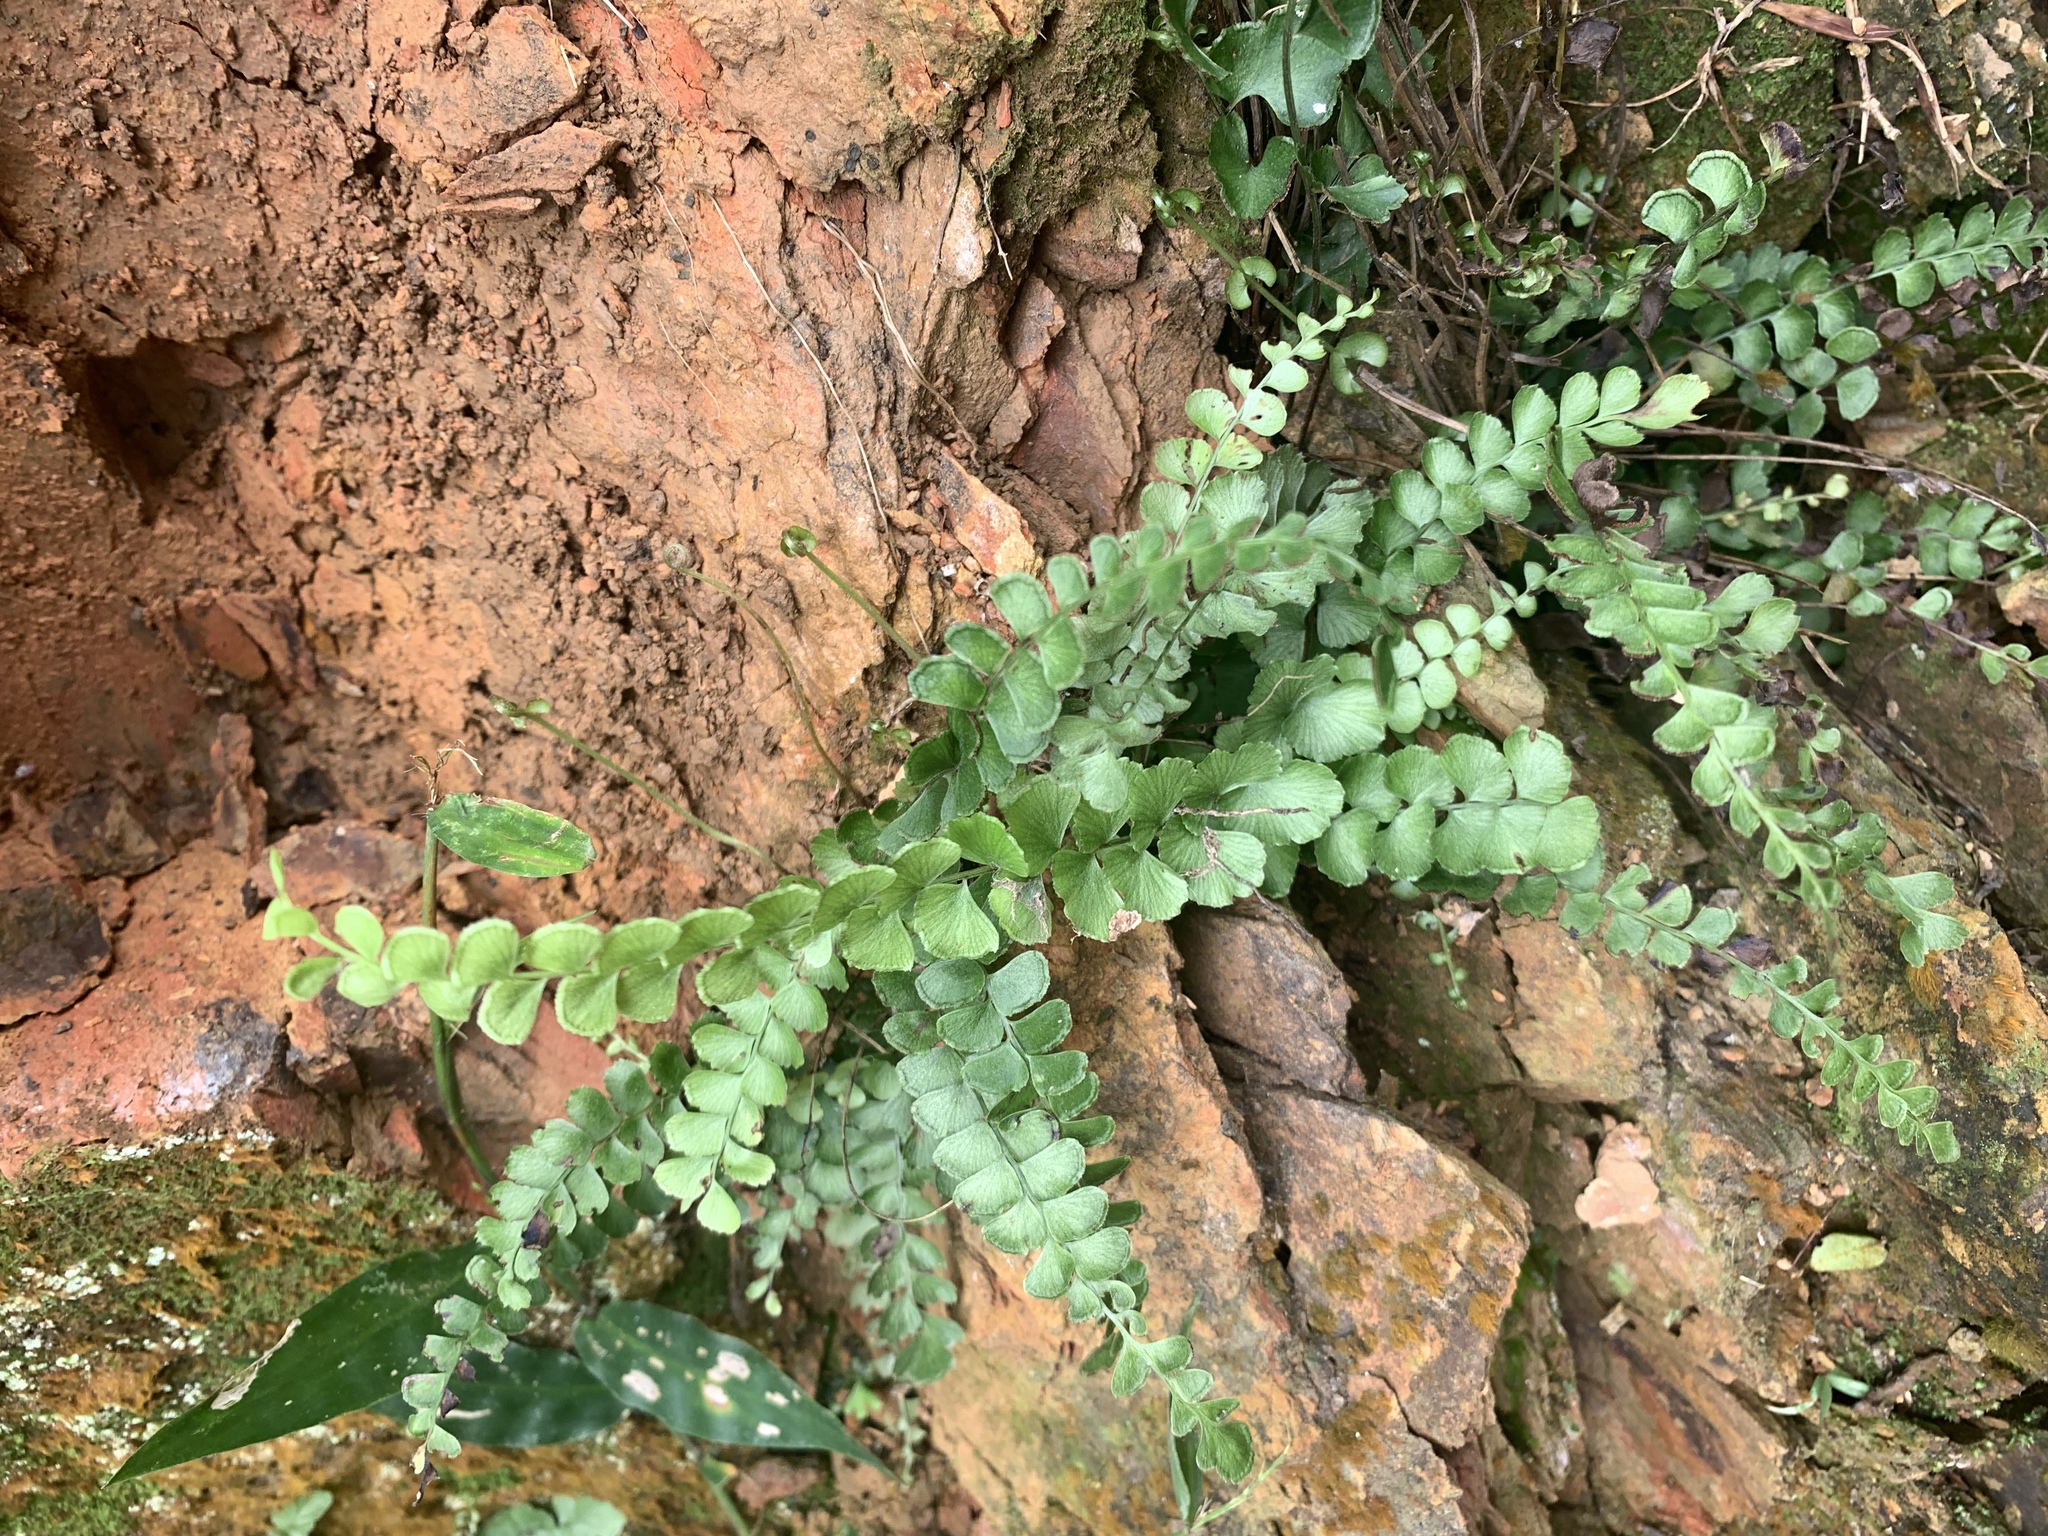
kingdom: Plantae
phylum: Tracheophyta
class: Polypodiopsida
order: Polypodiales
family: Lindsaeaceae
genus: Lindsaea
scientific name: Lindsaea orbiculata
